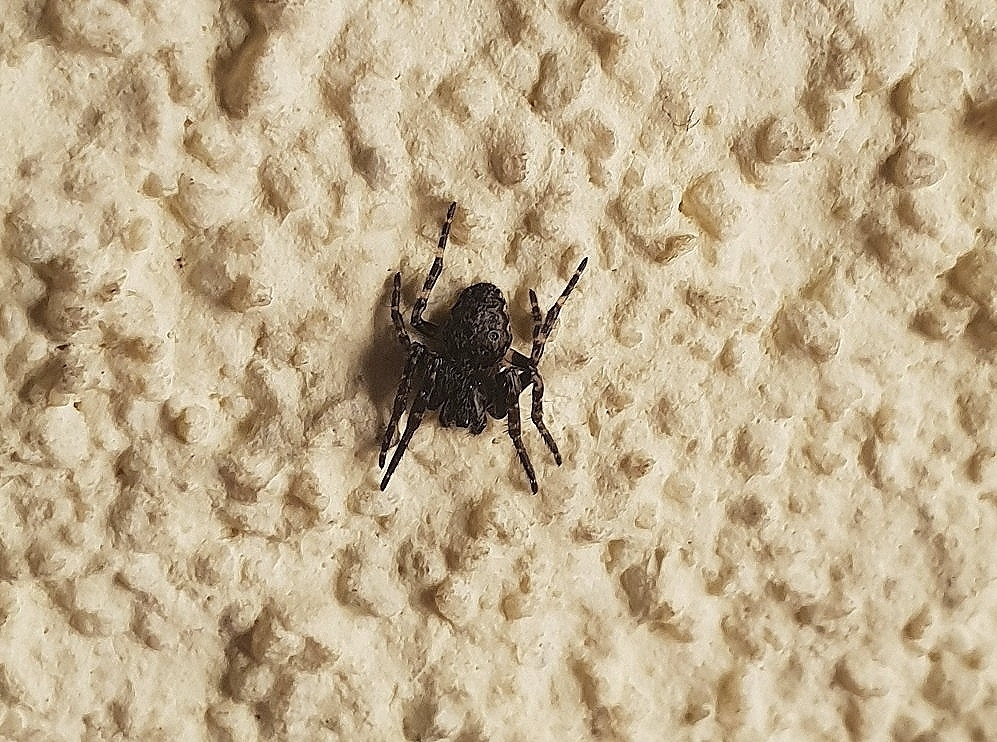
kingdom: Animalia
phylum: Arthropoda
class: Arachnida
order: Araneae
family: Araneidae
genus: Nuctenea
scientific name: Nuctenea umbratica
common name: Toad spider
